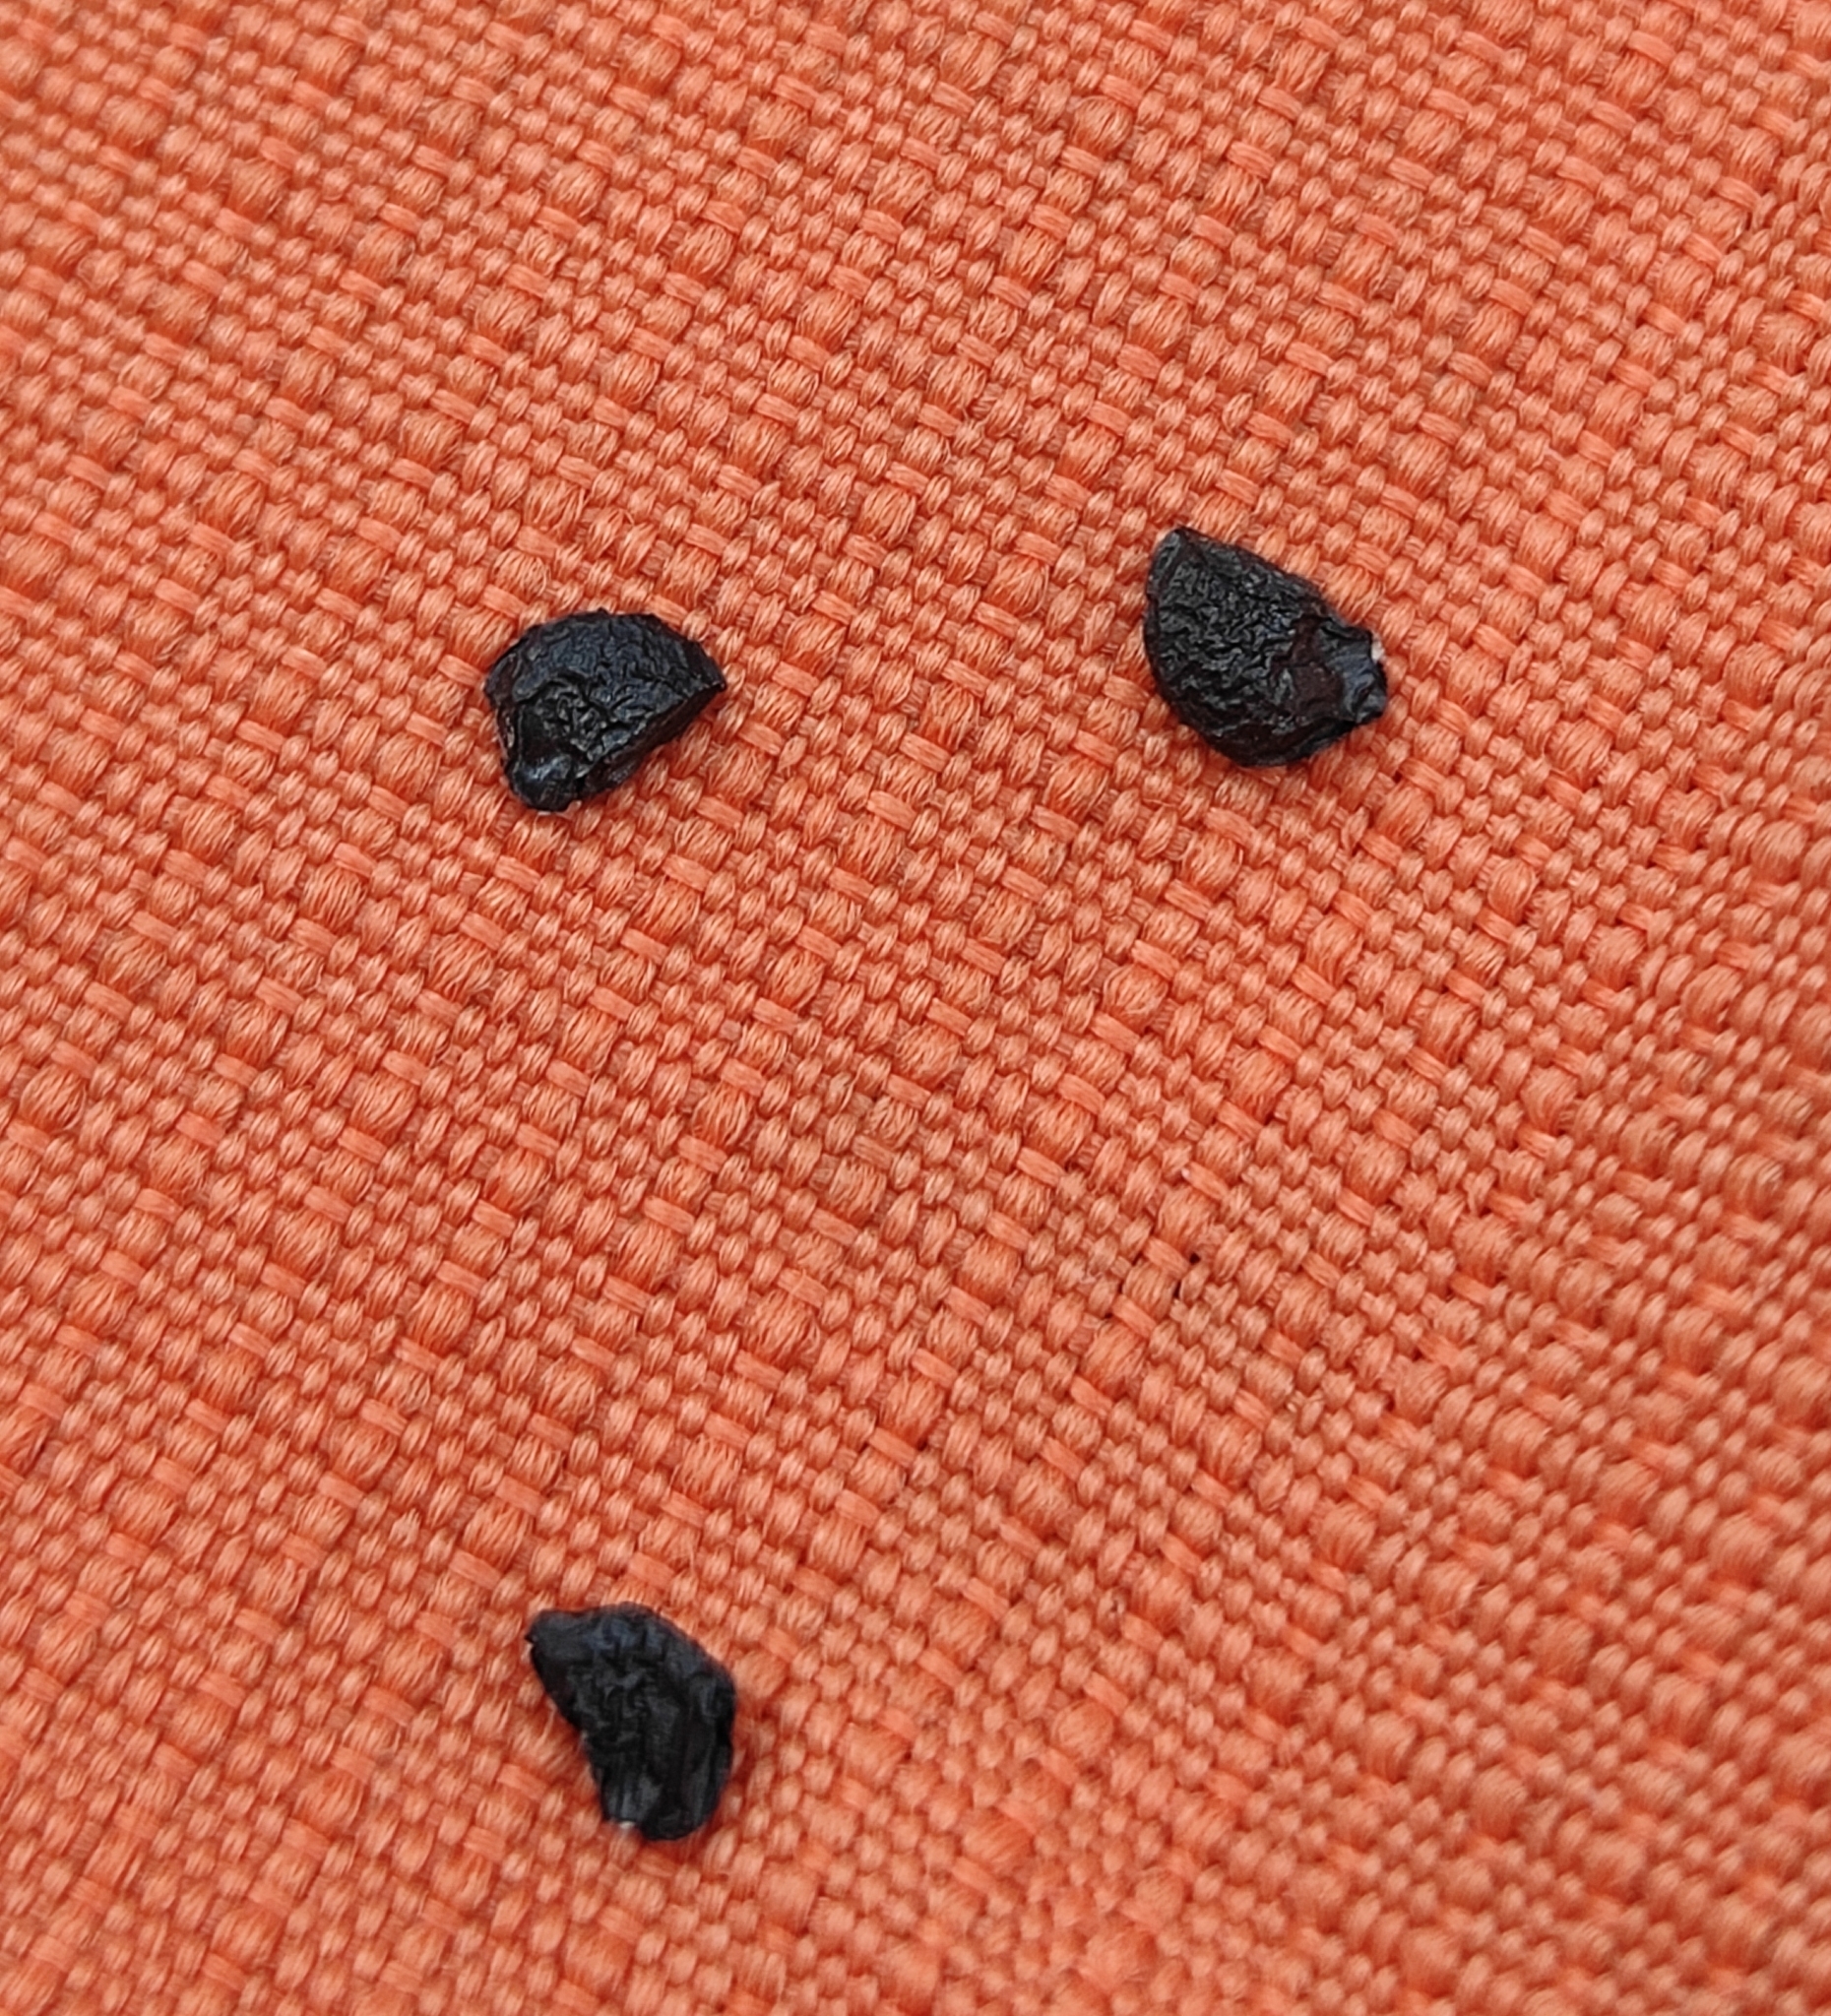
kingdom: Plantae
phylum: Tracheophyta
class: Liliopsida
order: Asparagales
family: Amaryllidaceae
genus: Allium
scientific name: Allium ramosum
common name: Fragrant garlic
